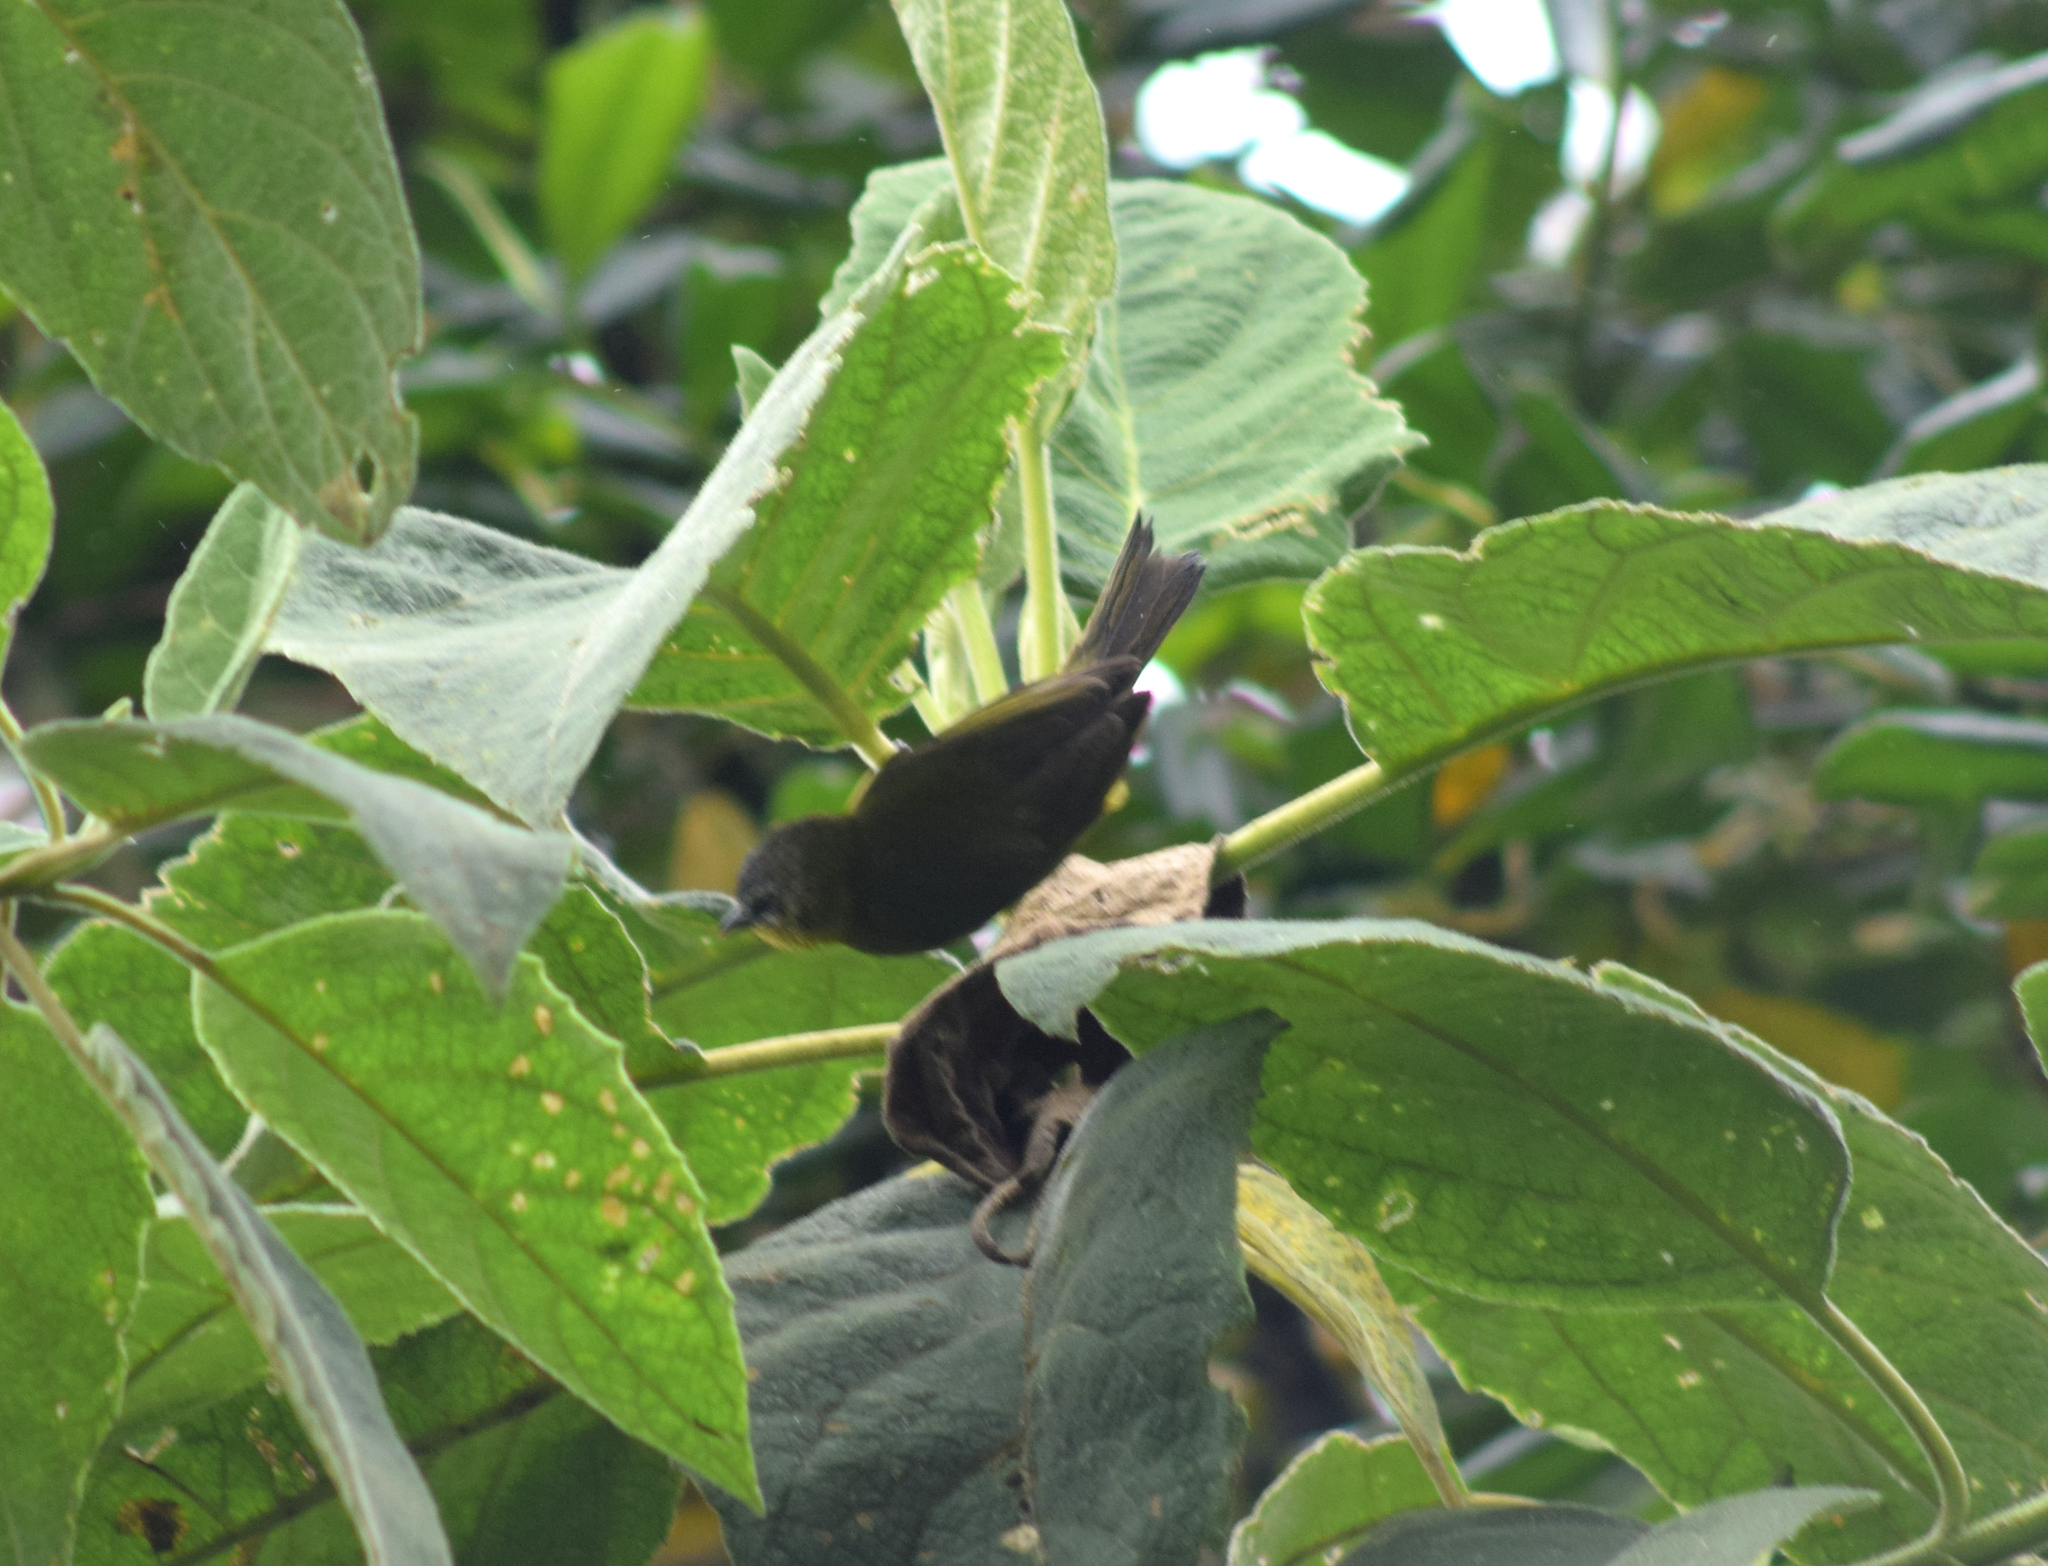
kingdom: Animalia
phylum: Chordata
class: Aves
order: Passeriformes
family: Thraupidae
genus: Thlypopsis
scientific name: Thlypopsis superciliaris
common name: Superciliaried hemispingus
